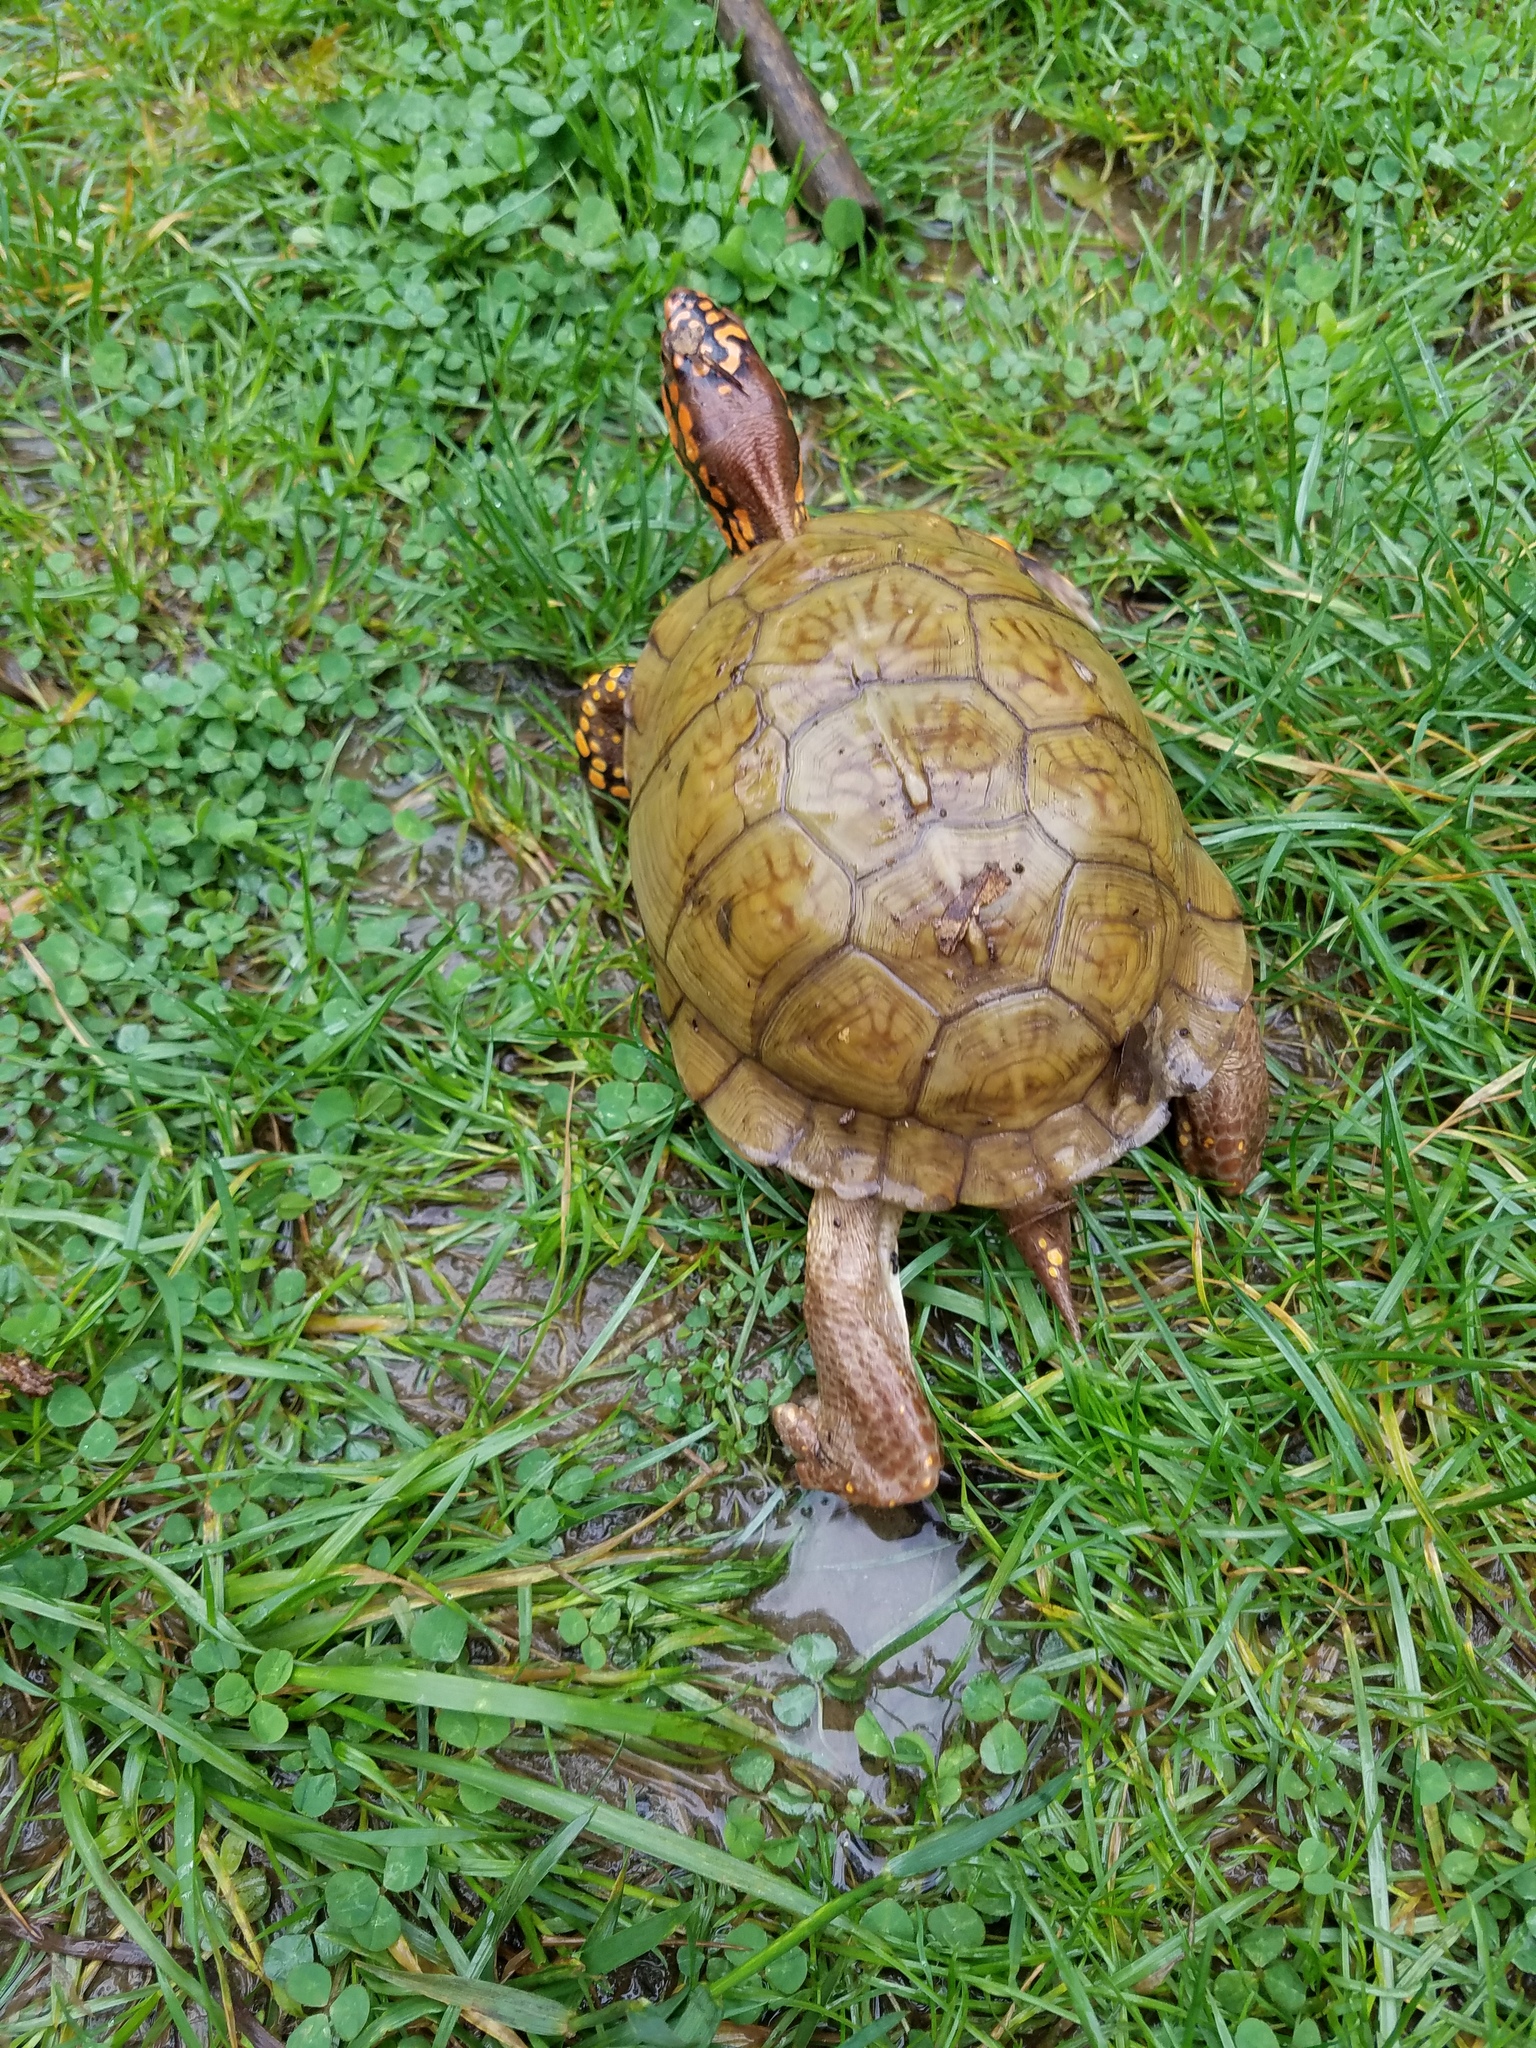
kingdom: Animalia
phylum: Chordata
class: Testudines
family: Emydidae
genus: Terrapene
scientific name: Terrapene carolina
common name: Common box turtle
